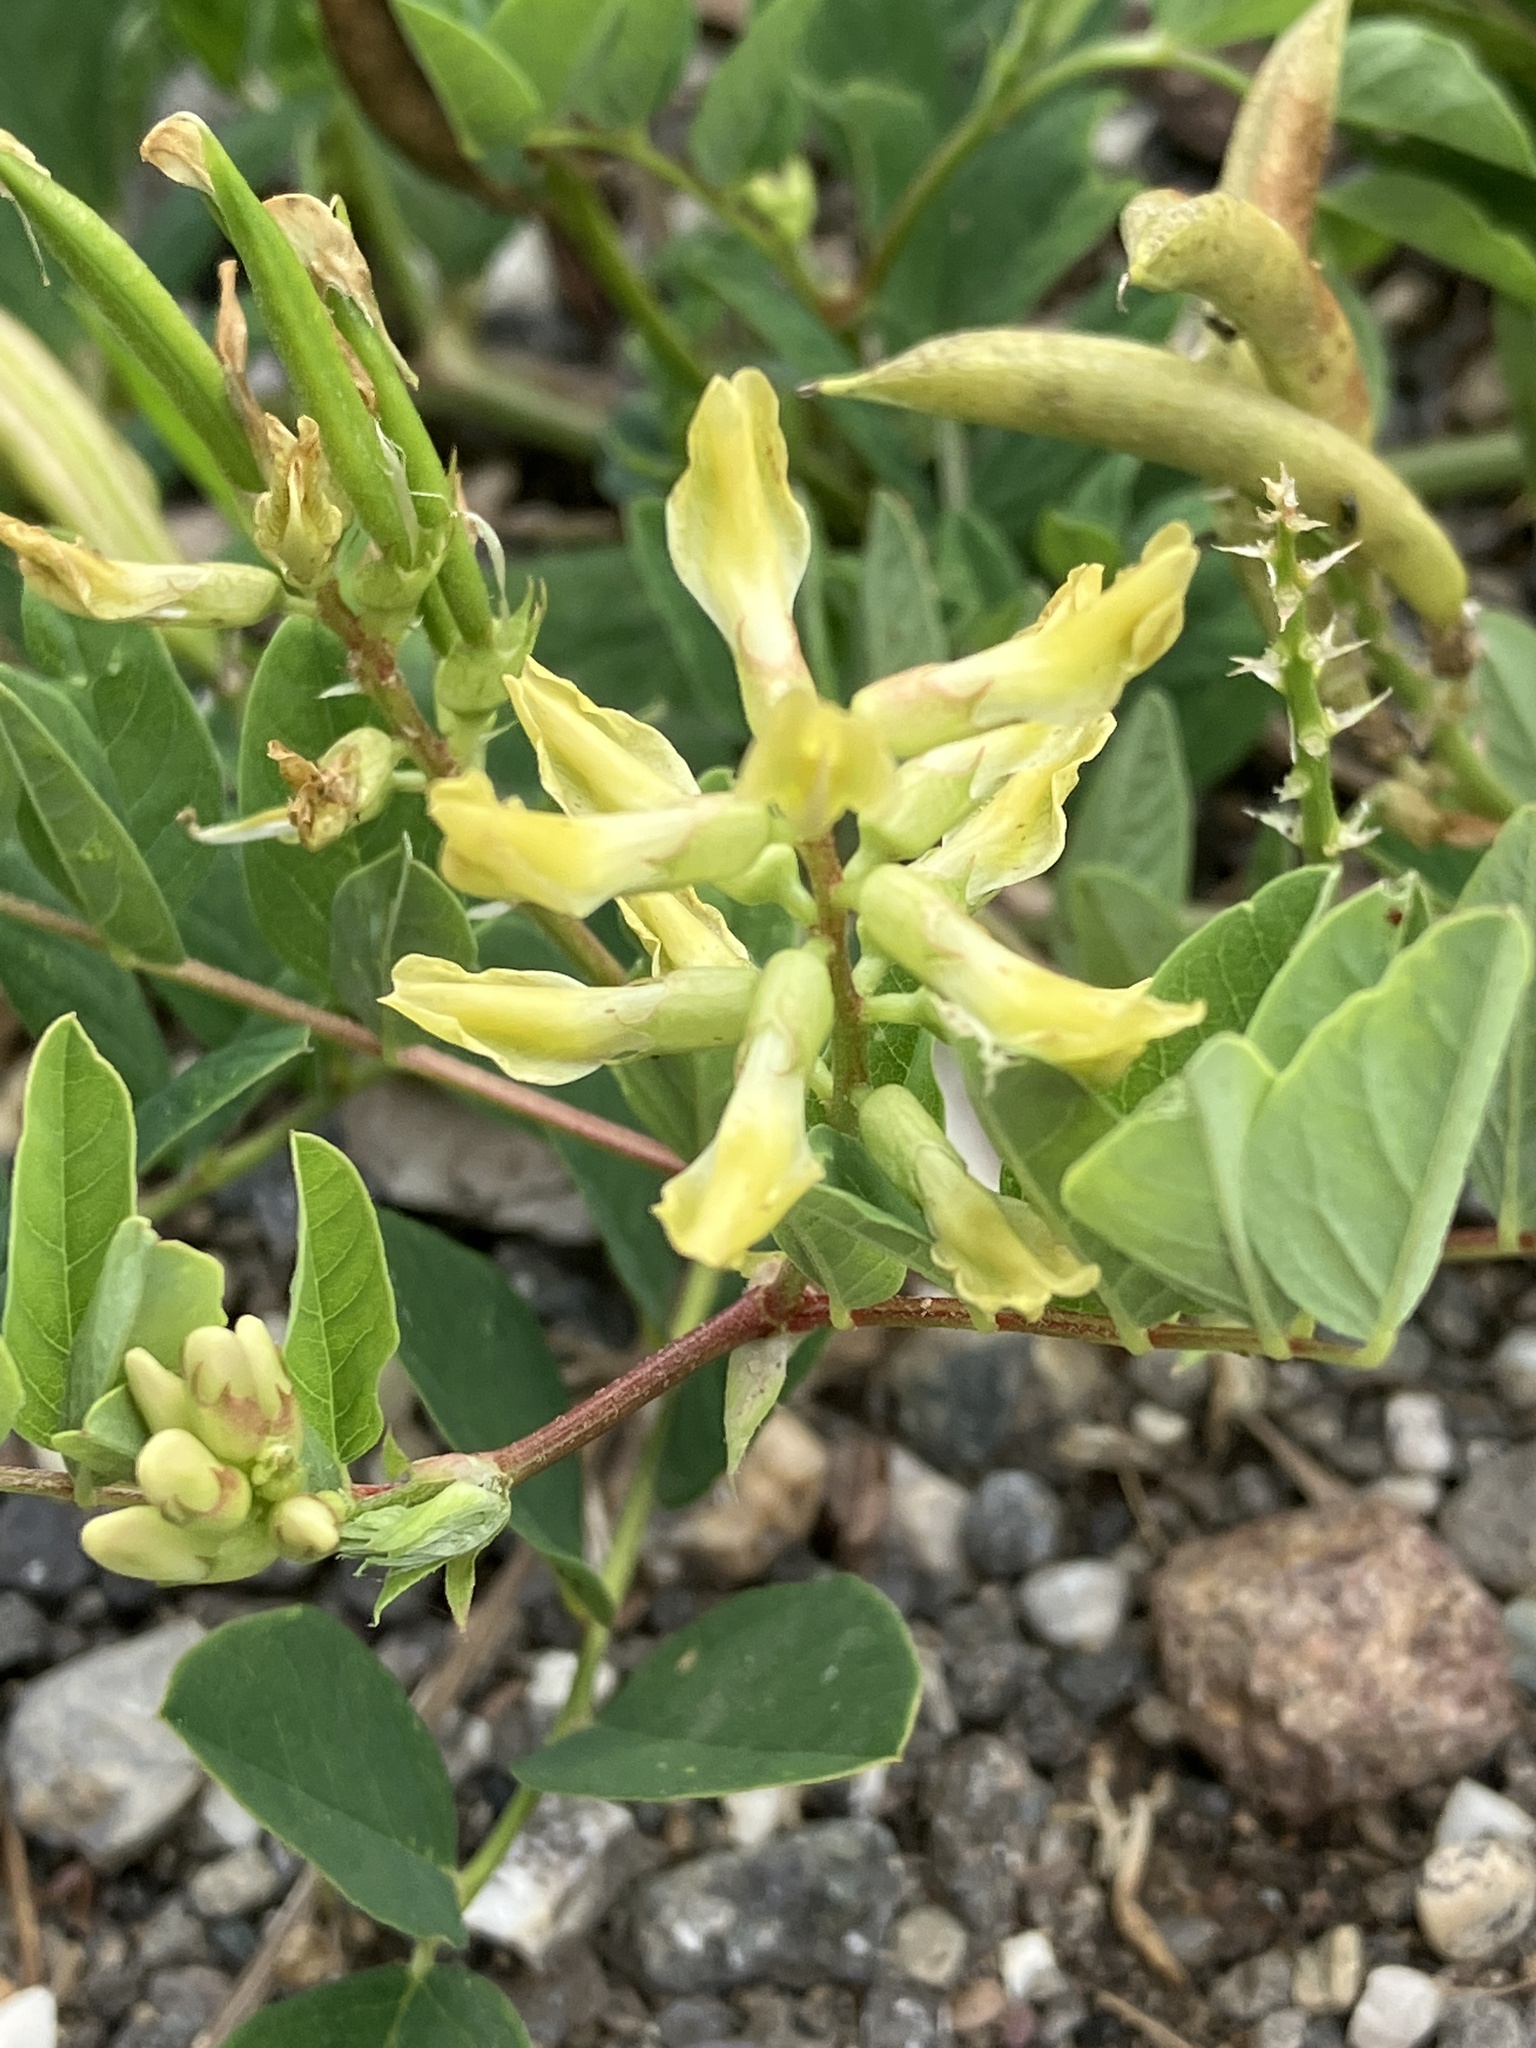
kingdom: Plantae
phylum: Tracheophyta
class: Magnoliopsida
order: Fabales
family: Fabaceae
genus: Astragalus
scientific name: Astragalus glycyphyllos
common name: Wild liquorice
